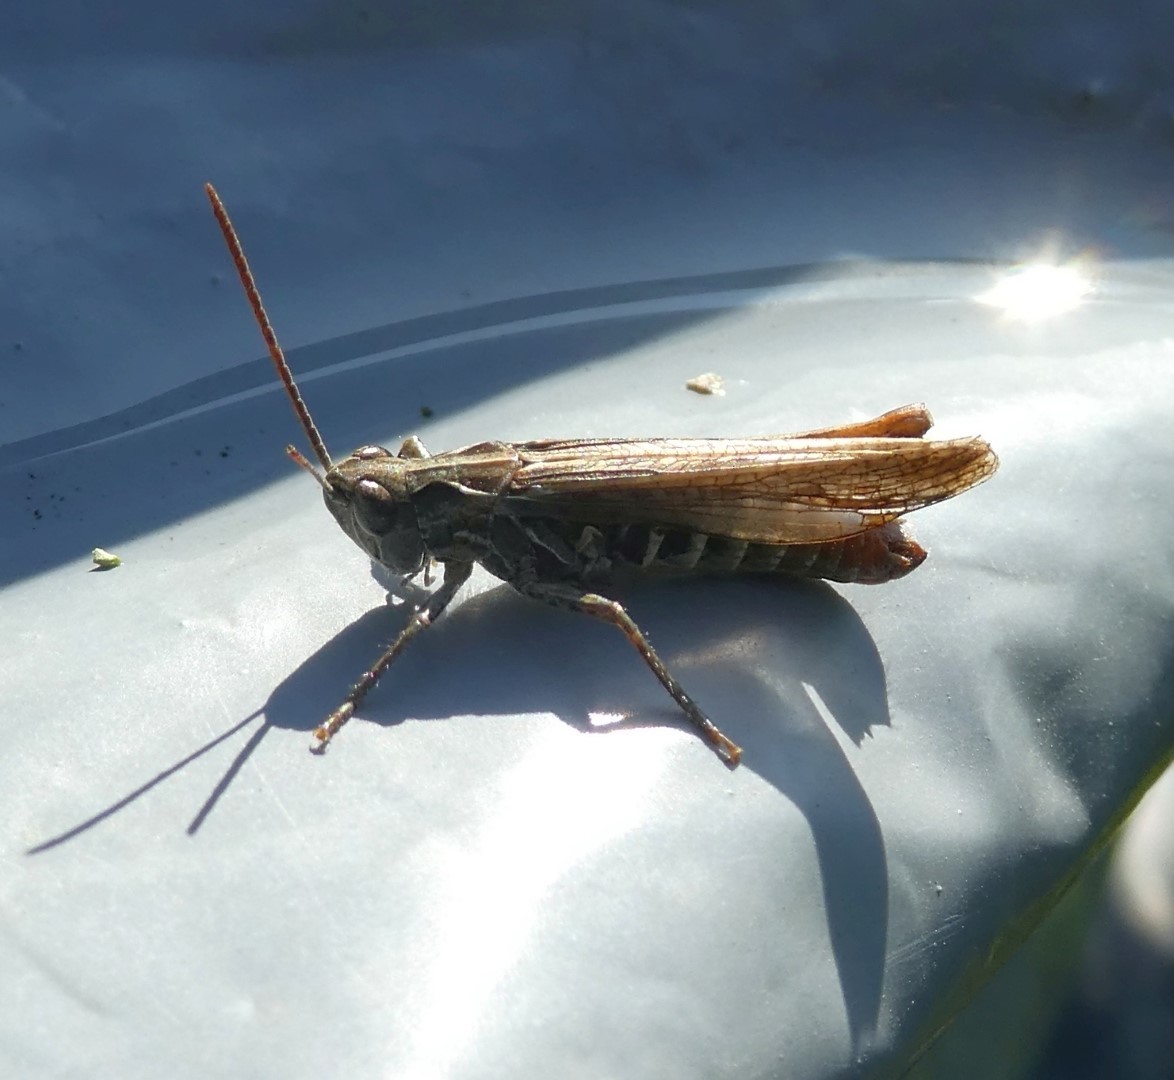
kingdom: Animalia
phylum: Arthropoda
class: Insecta
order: Orthoptera
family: Acrididae
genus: Chorthippus
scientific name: Chorthippus biguttulus
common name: Bow-winged grasshopper
